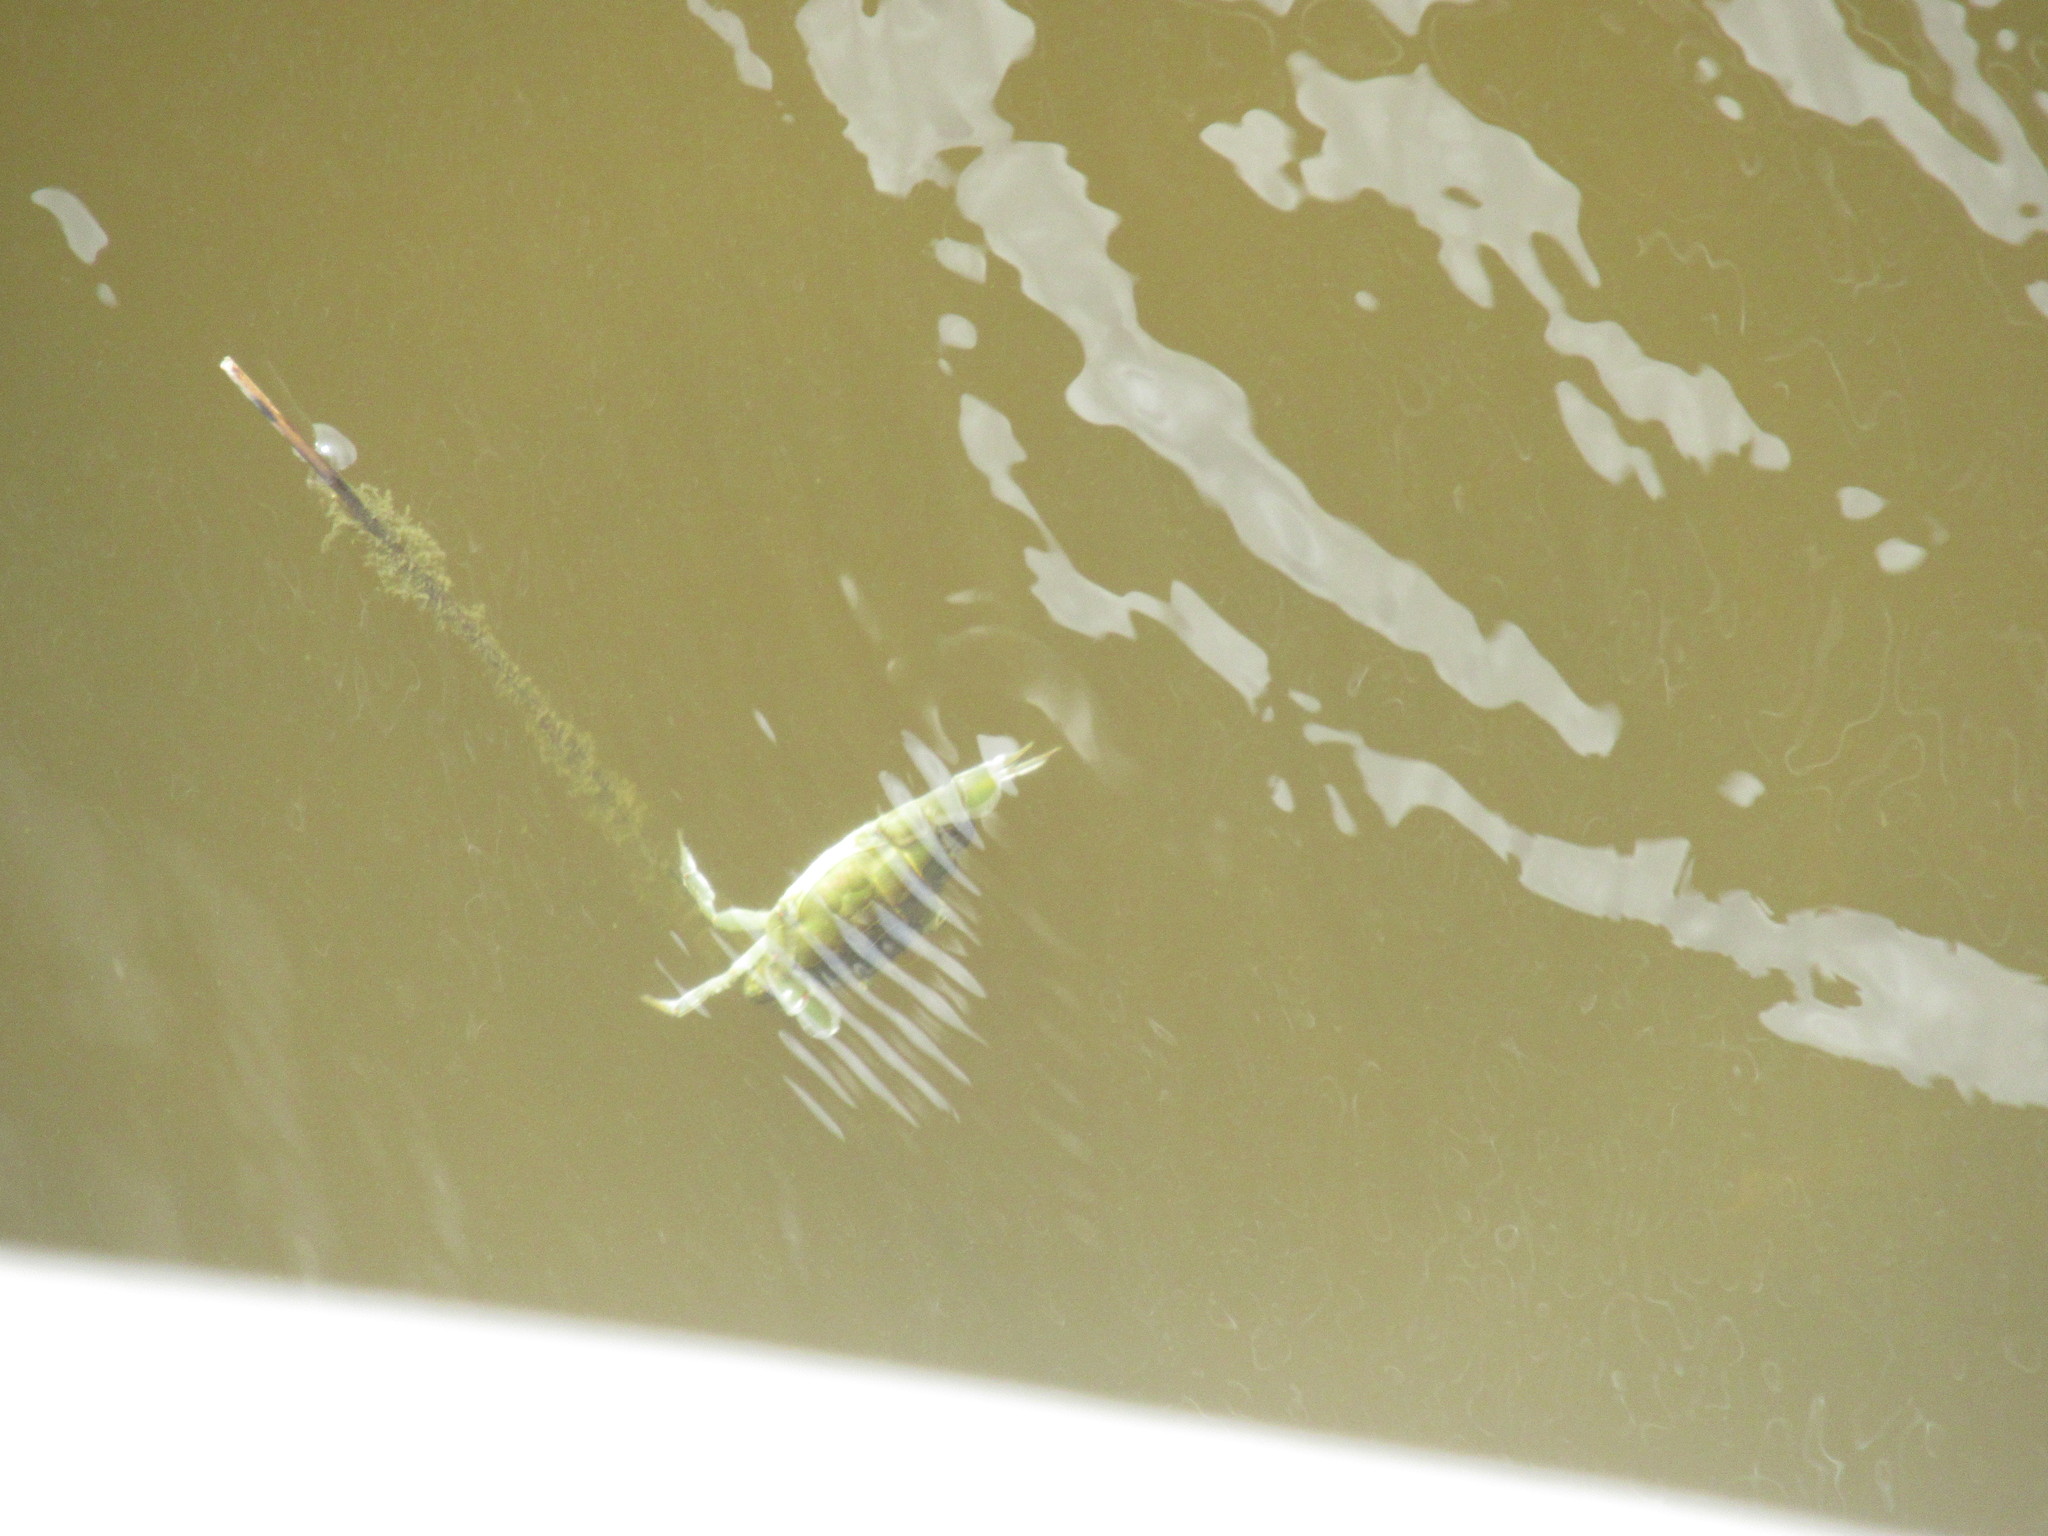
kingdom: Animalia
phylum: Arthropoda
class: Malacostraca
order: Decapoda
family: Portunidae
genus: Callinectes
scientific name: Callinectes sapidus
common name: Blue crab
